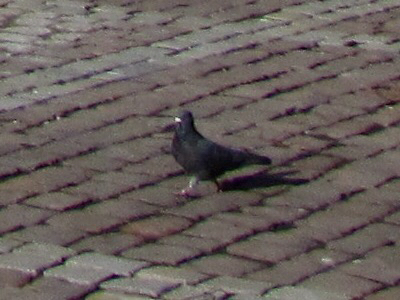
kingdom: Animalia
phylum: Chordata
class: Aves
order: Columbiformes
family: Columbidae
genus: Columba
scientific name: Columba livia
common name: Rock pigeon
